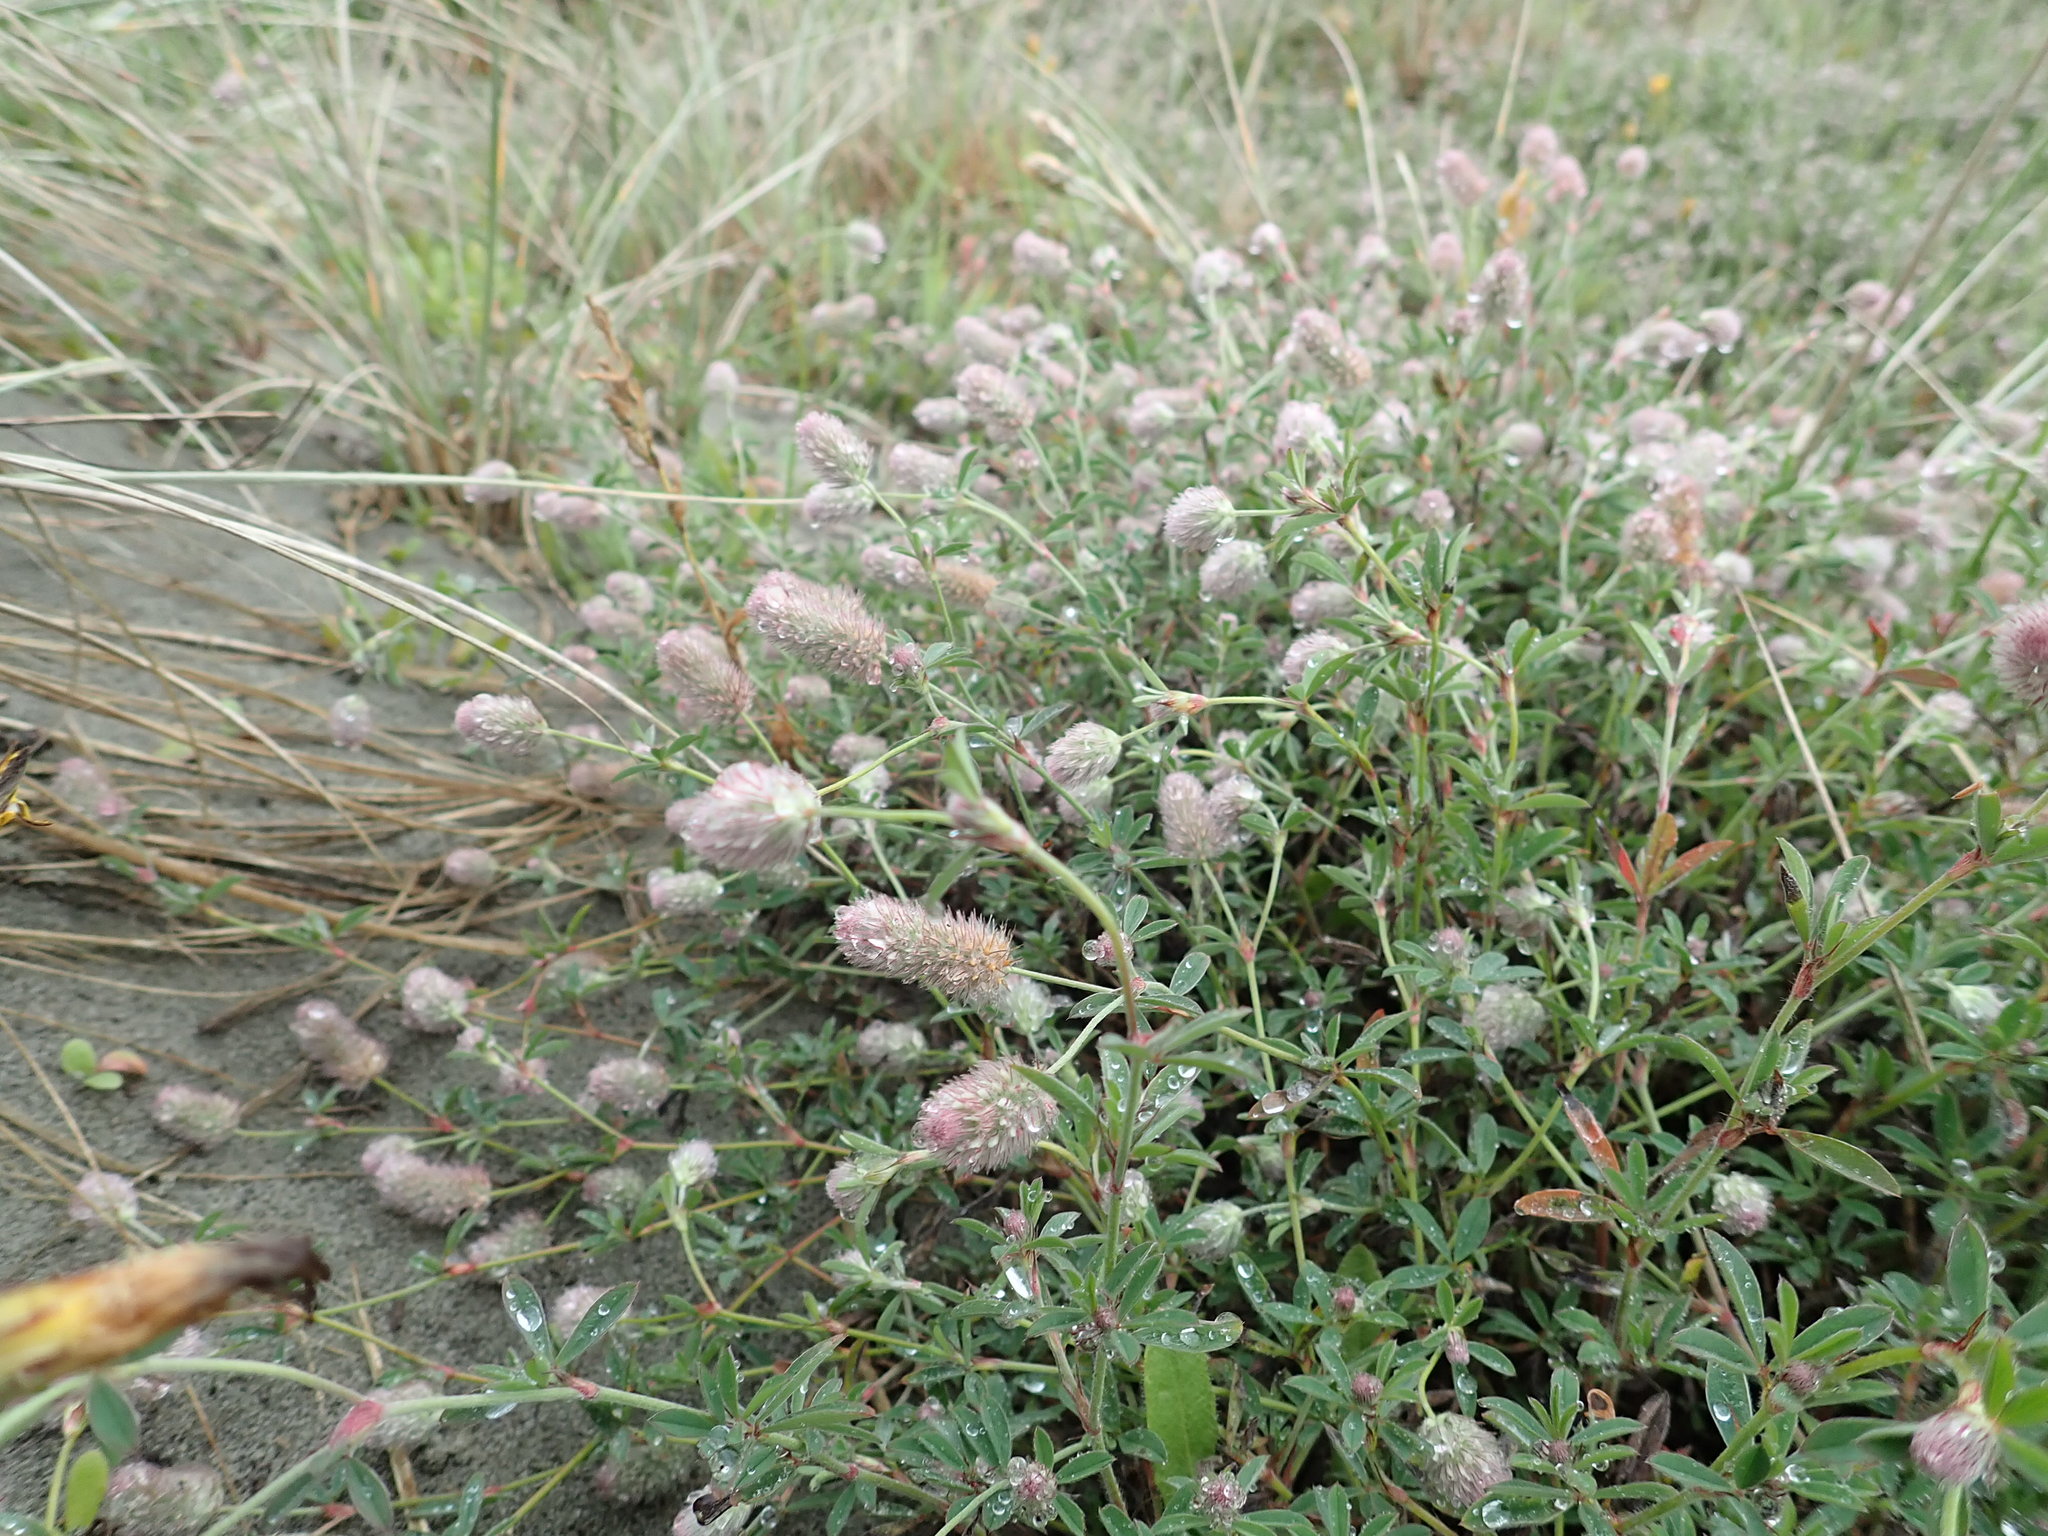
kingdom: Plantae
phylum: Tracheophyta
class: Magnoliopsida
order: Fabales
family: Fabaceae
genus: Trifolium
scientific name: Trifolium arvense
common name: Hare's-foot clover
